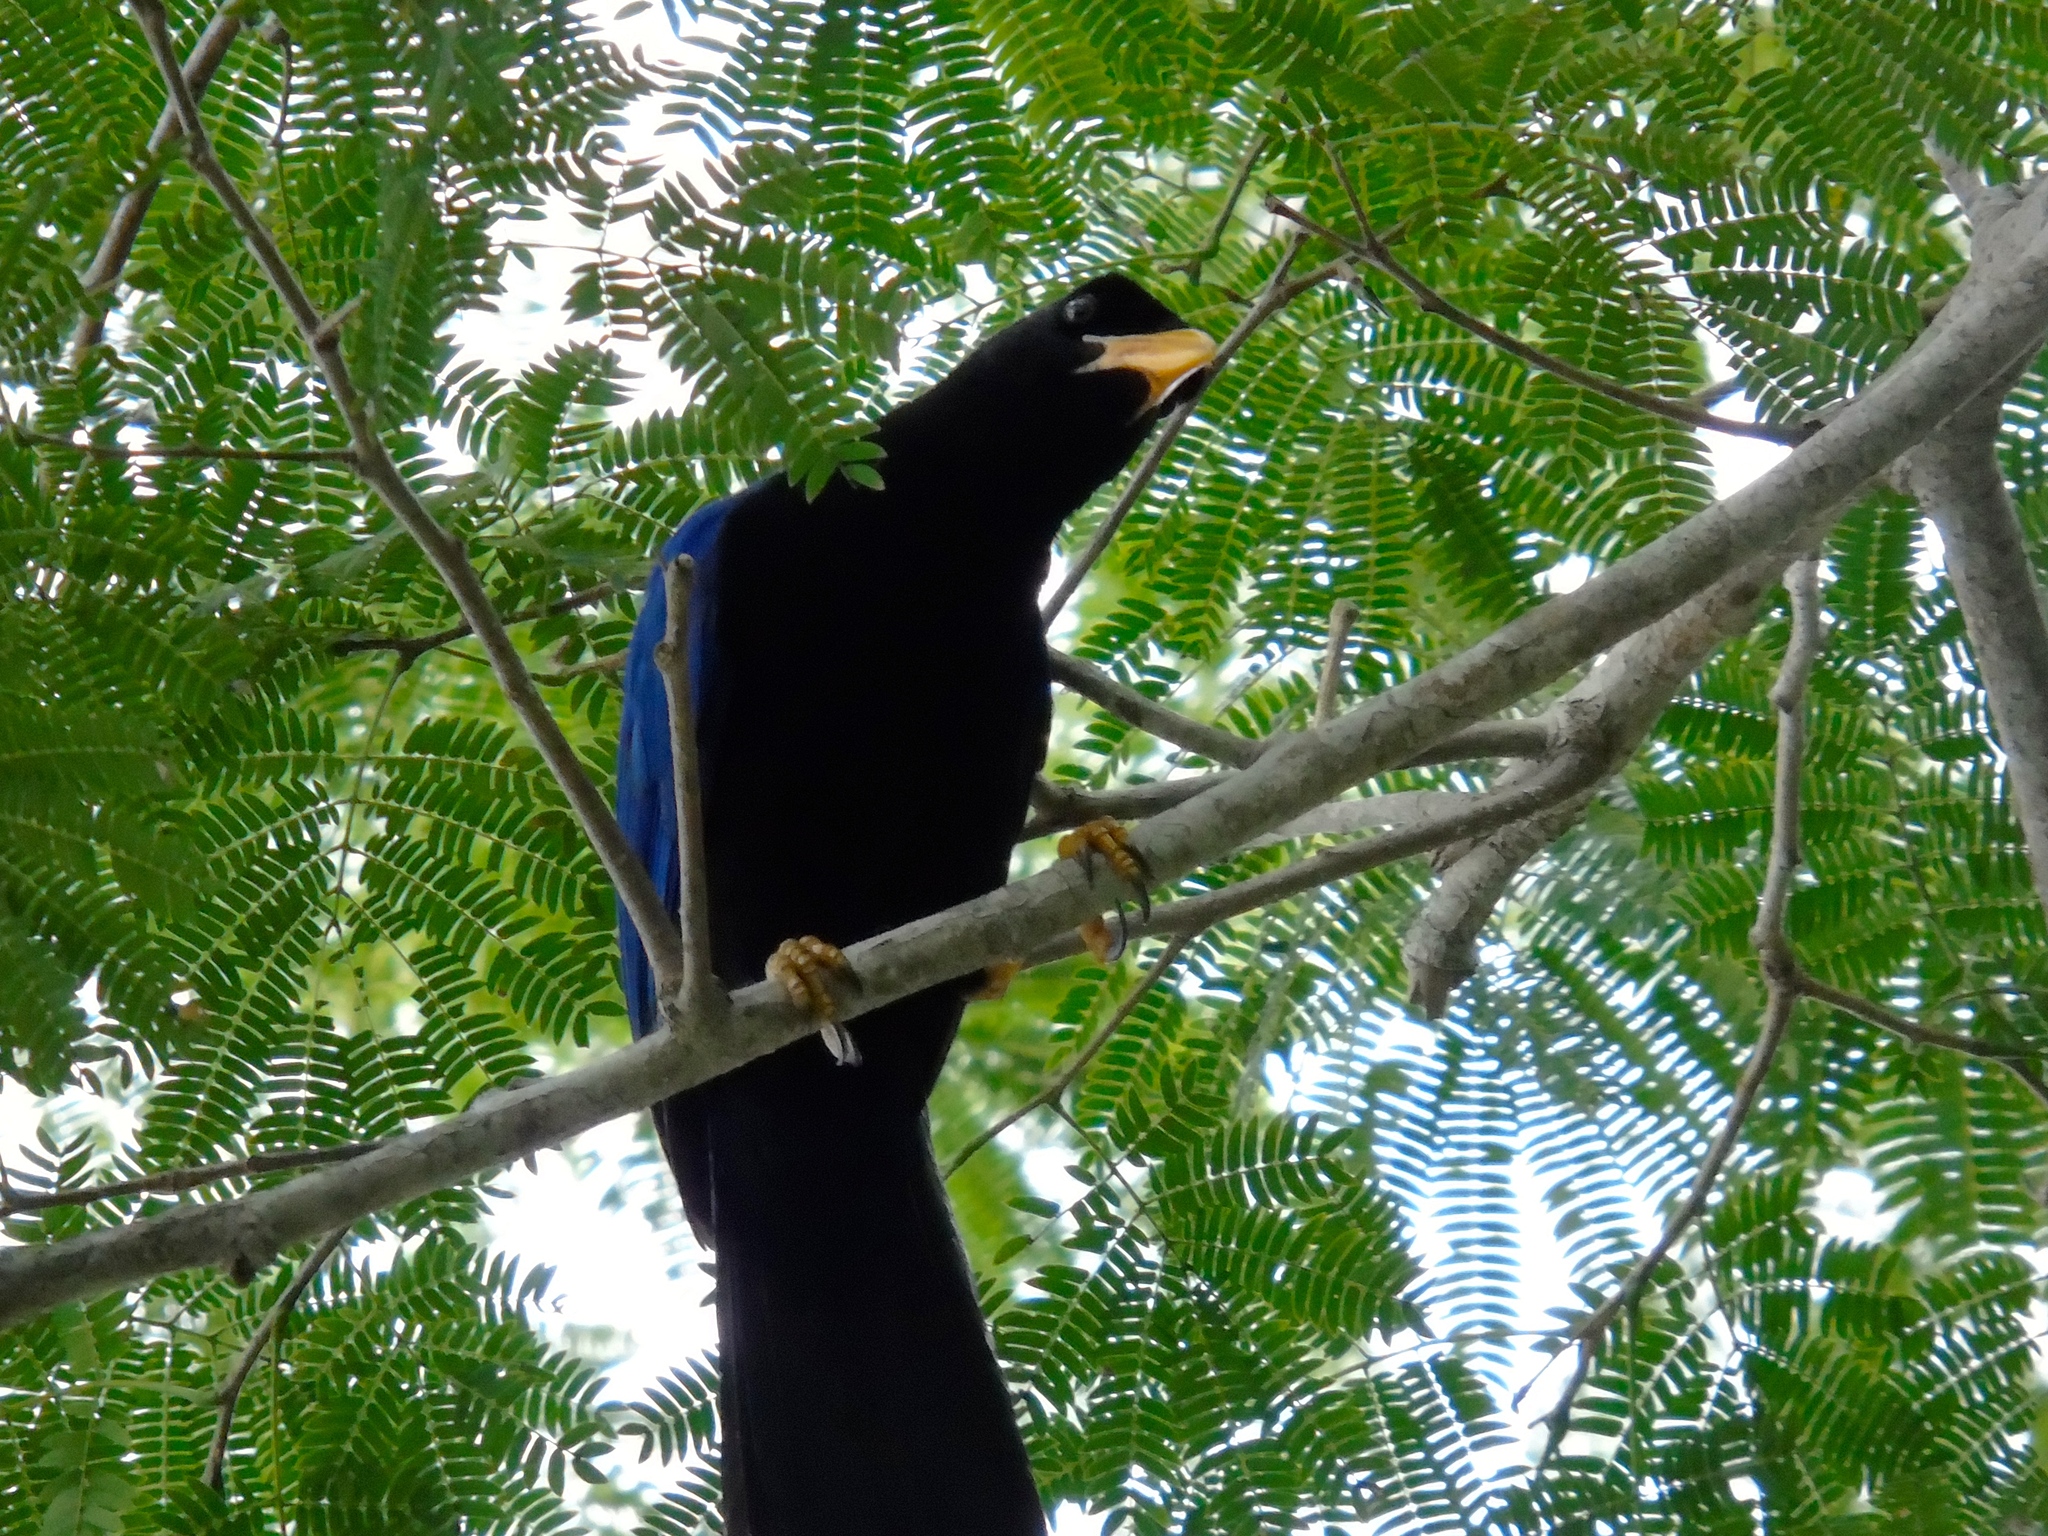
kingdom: Animalia
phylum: Chordata
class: Aves
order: Passeriformes
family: Corvidae
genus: Cyanocorax
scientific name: Cyanocorax beecheii
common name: Purplish-backed jay
